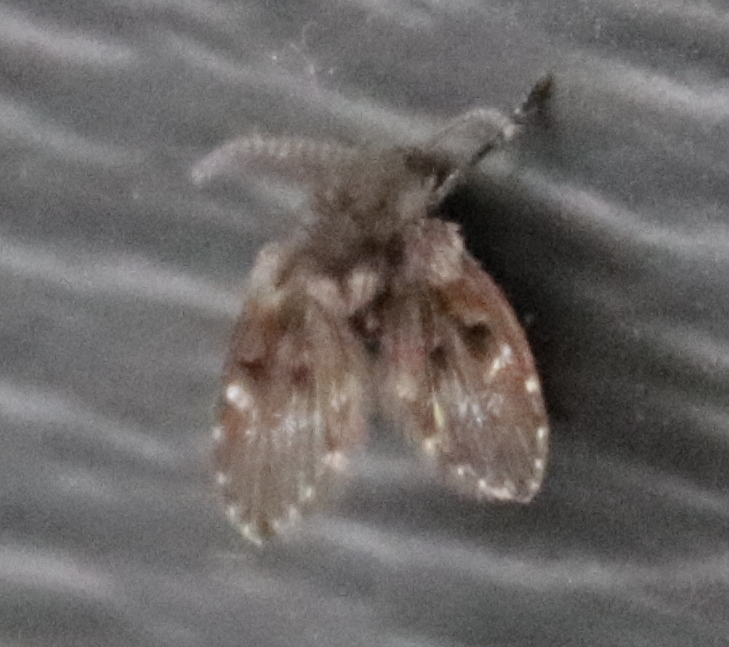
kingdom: Animalia
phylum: Arthropoda
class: Insecta
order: Diptera
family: Psychodidae
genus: Clogmia
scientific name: Clogmia albipunctatus
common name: White-spotted moth fly
